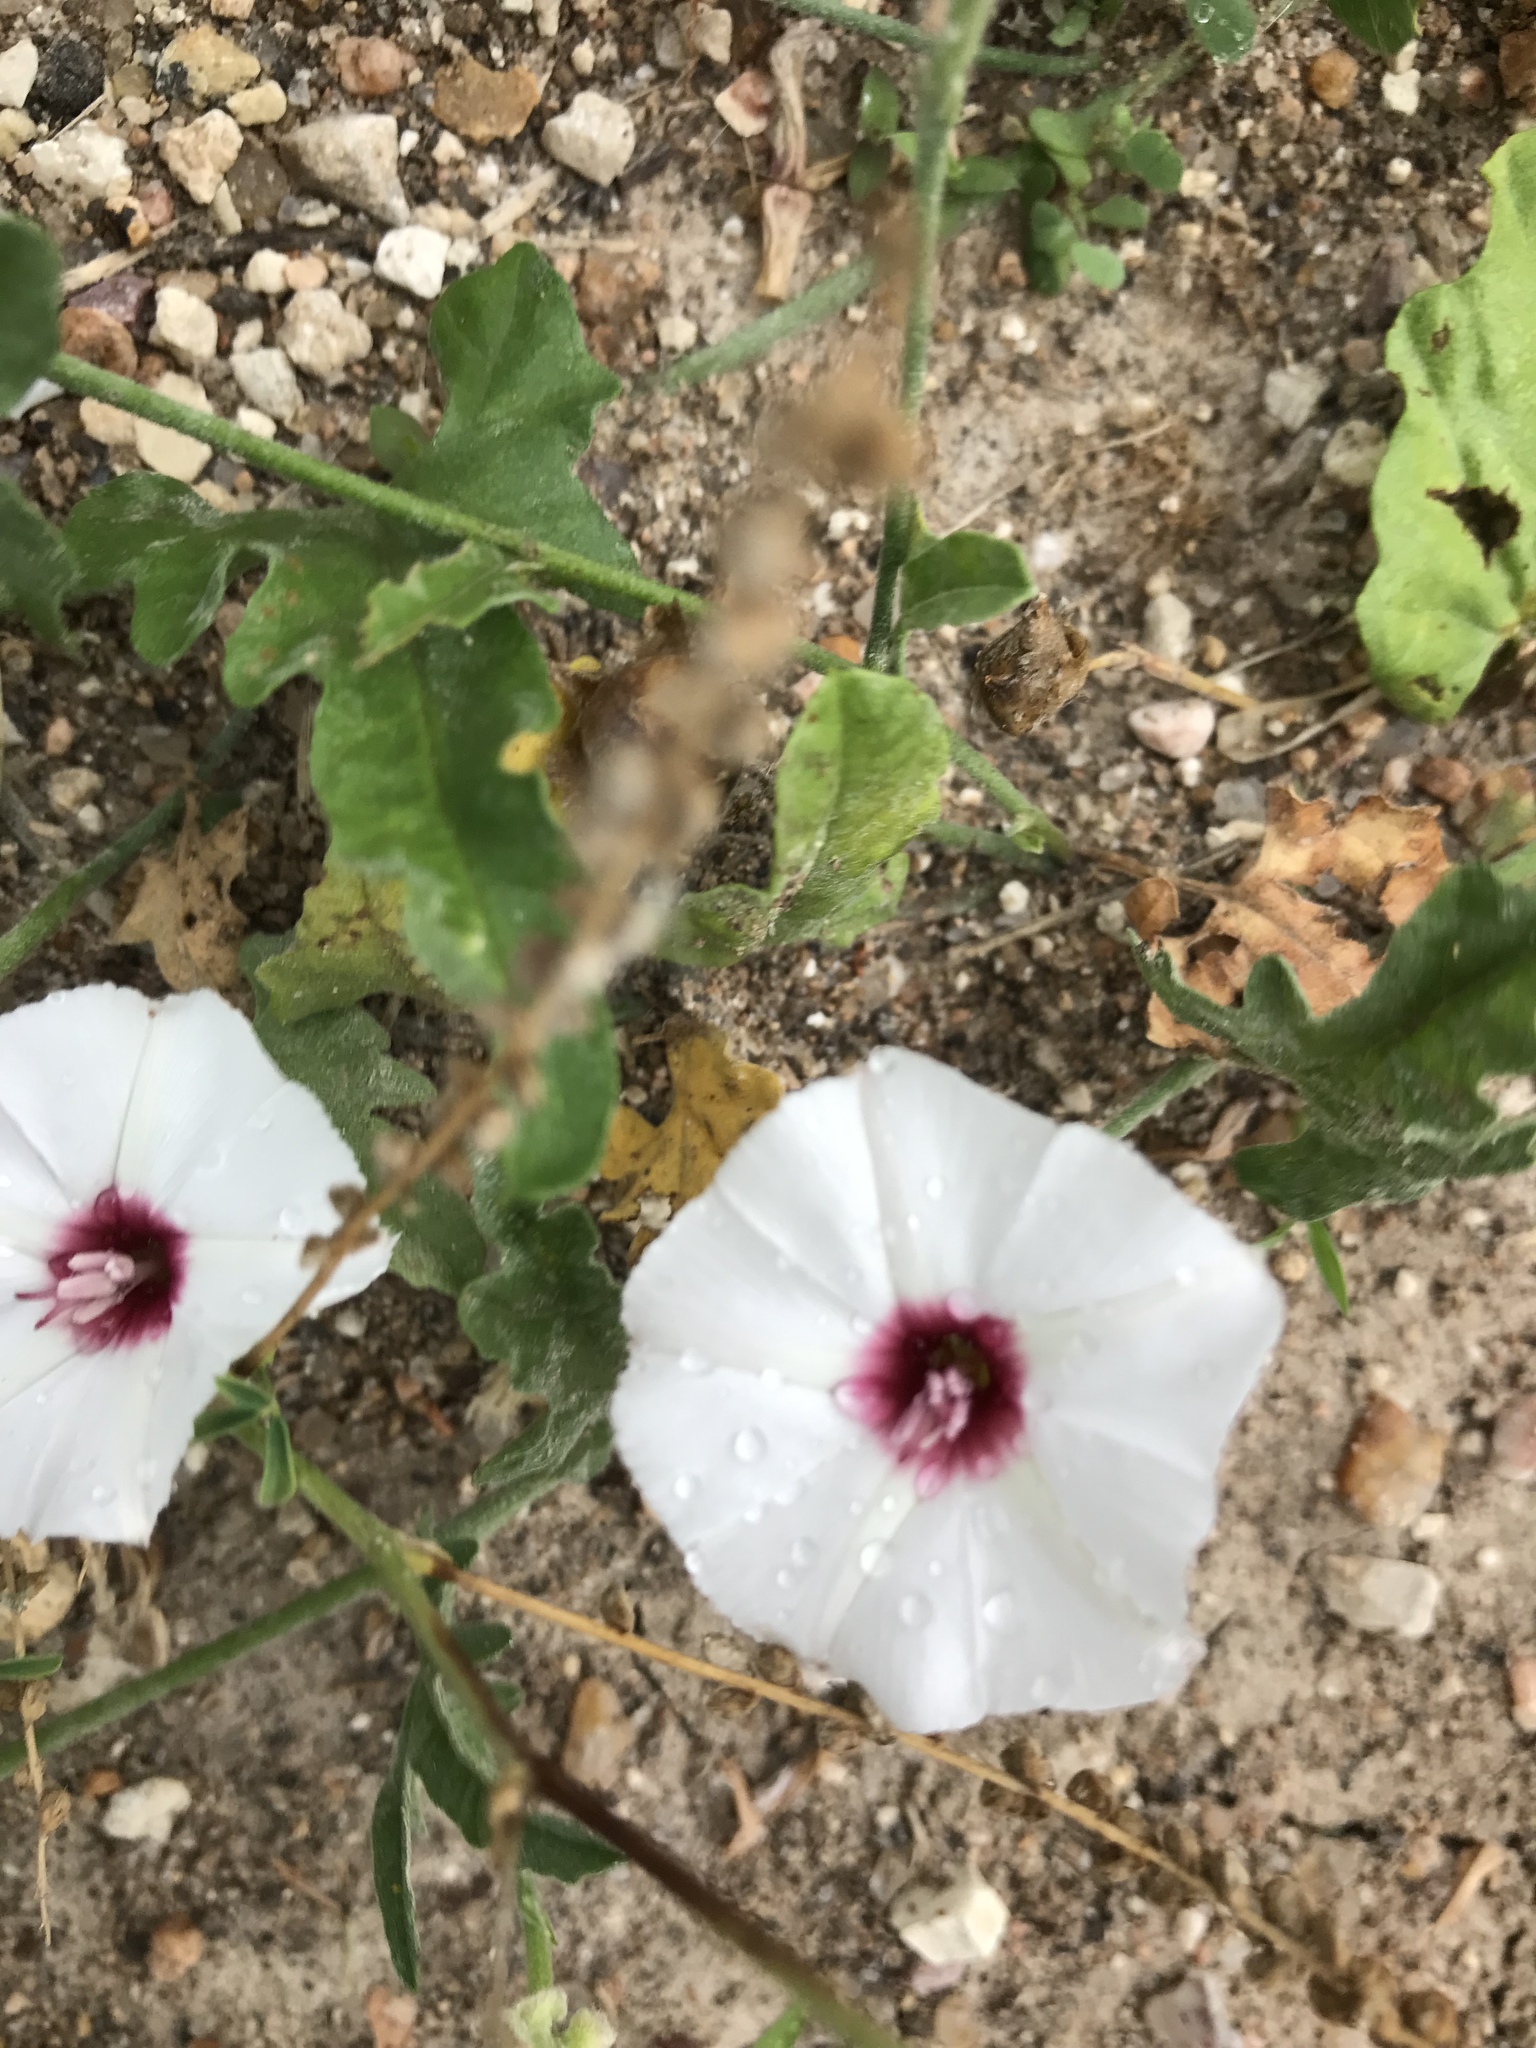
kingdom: Plantae
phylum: Tracheophyta
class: Magnoliopsida
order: Solanales
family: Convolvulaceae
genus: Convolvulus
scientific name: Convolvulus equitans
